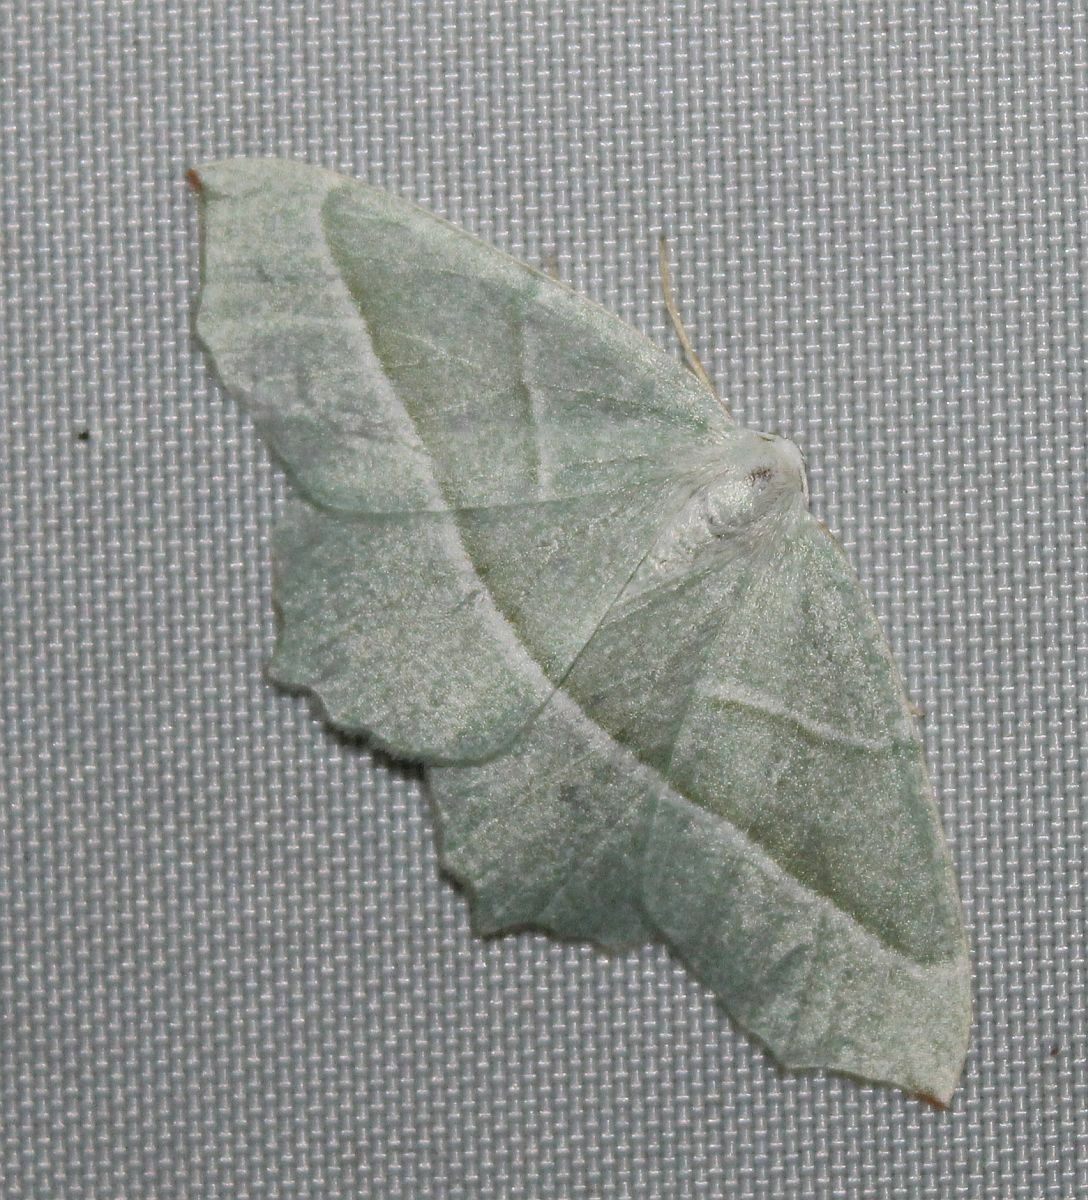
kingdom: Animalia
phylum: Arthropoda
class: Insecta
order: Lepidoptera
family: Geometridae
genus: Campaea
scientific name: Campaea margaritaria
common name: Light emerald
